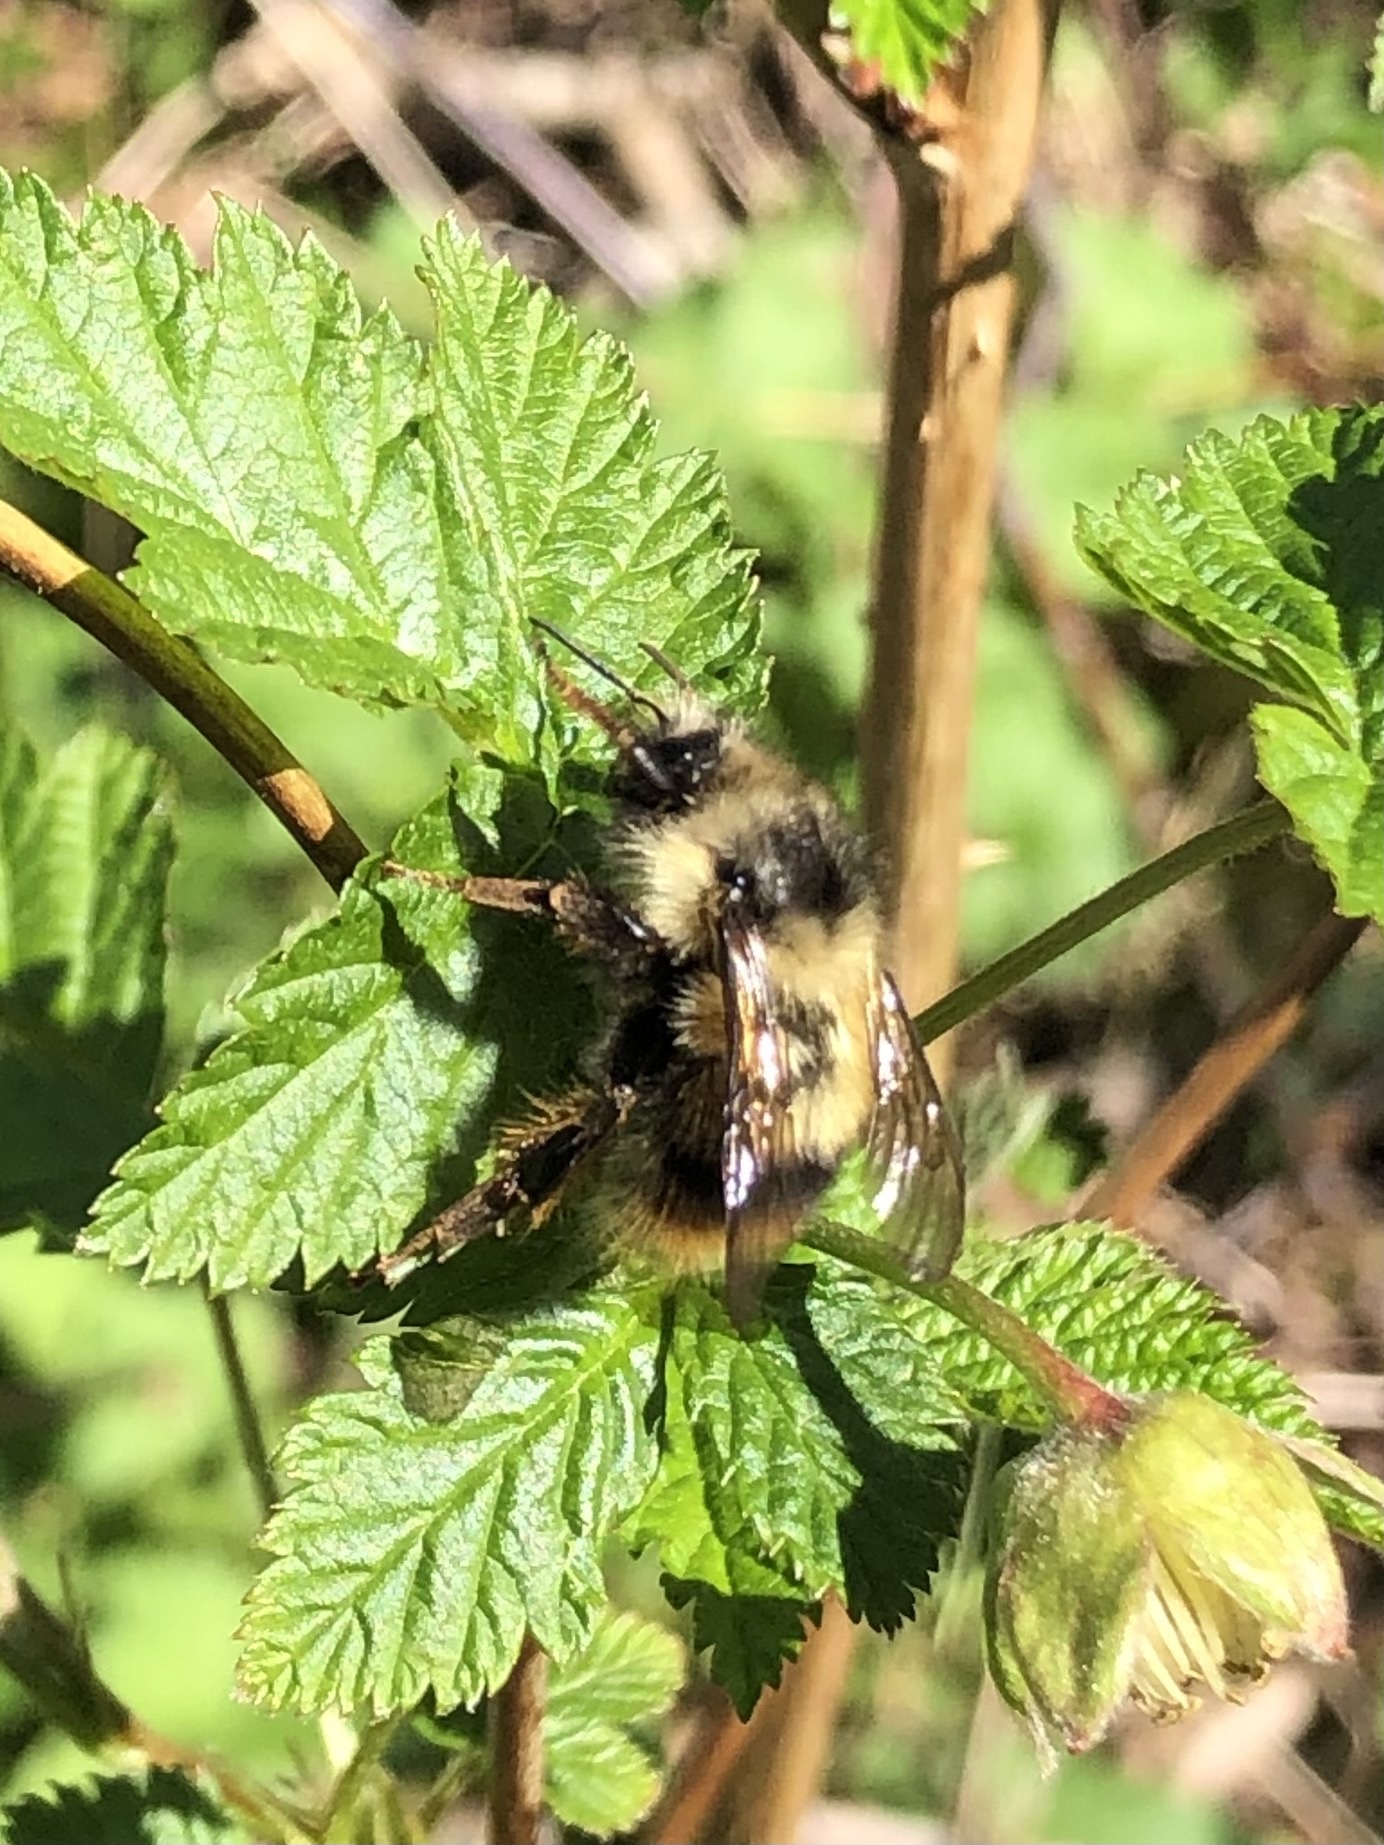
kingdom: Animalia
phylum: Arthropoda
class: Insecta
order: Hymenoptera
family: Apidae
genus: Bombus
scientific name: Bombus mixtus
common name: Fuzzy-horned bumble bee
